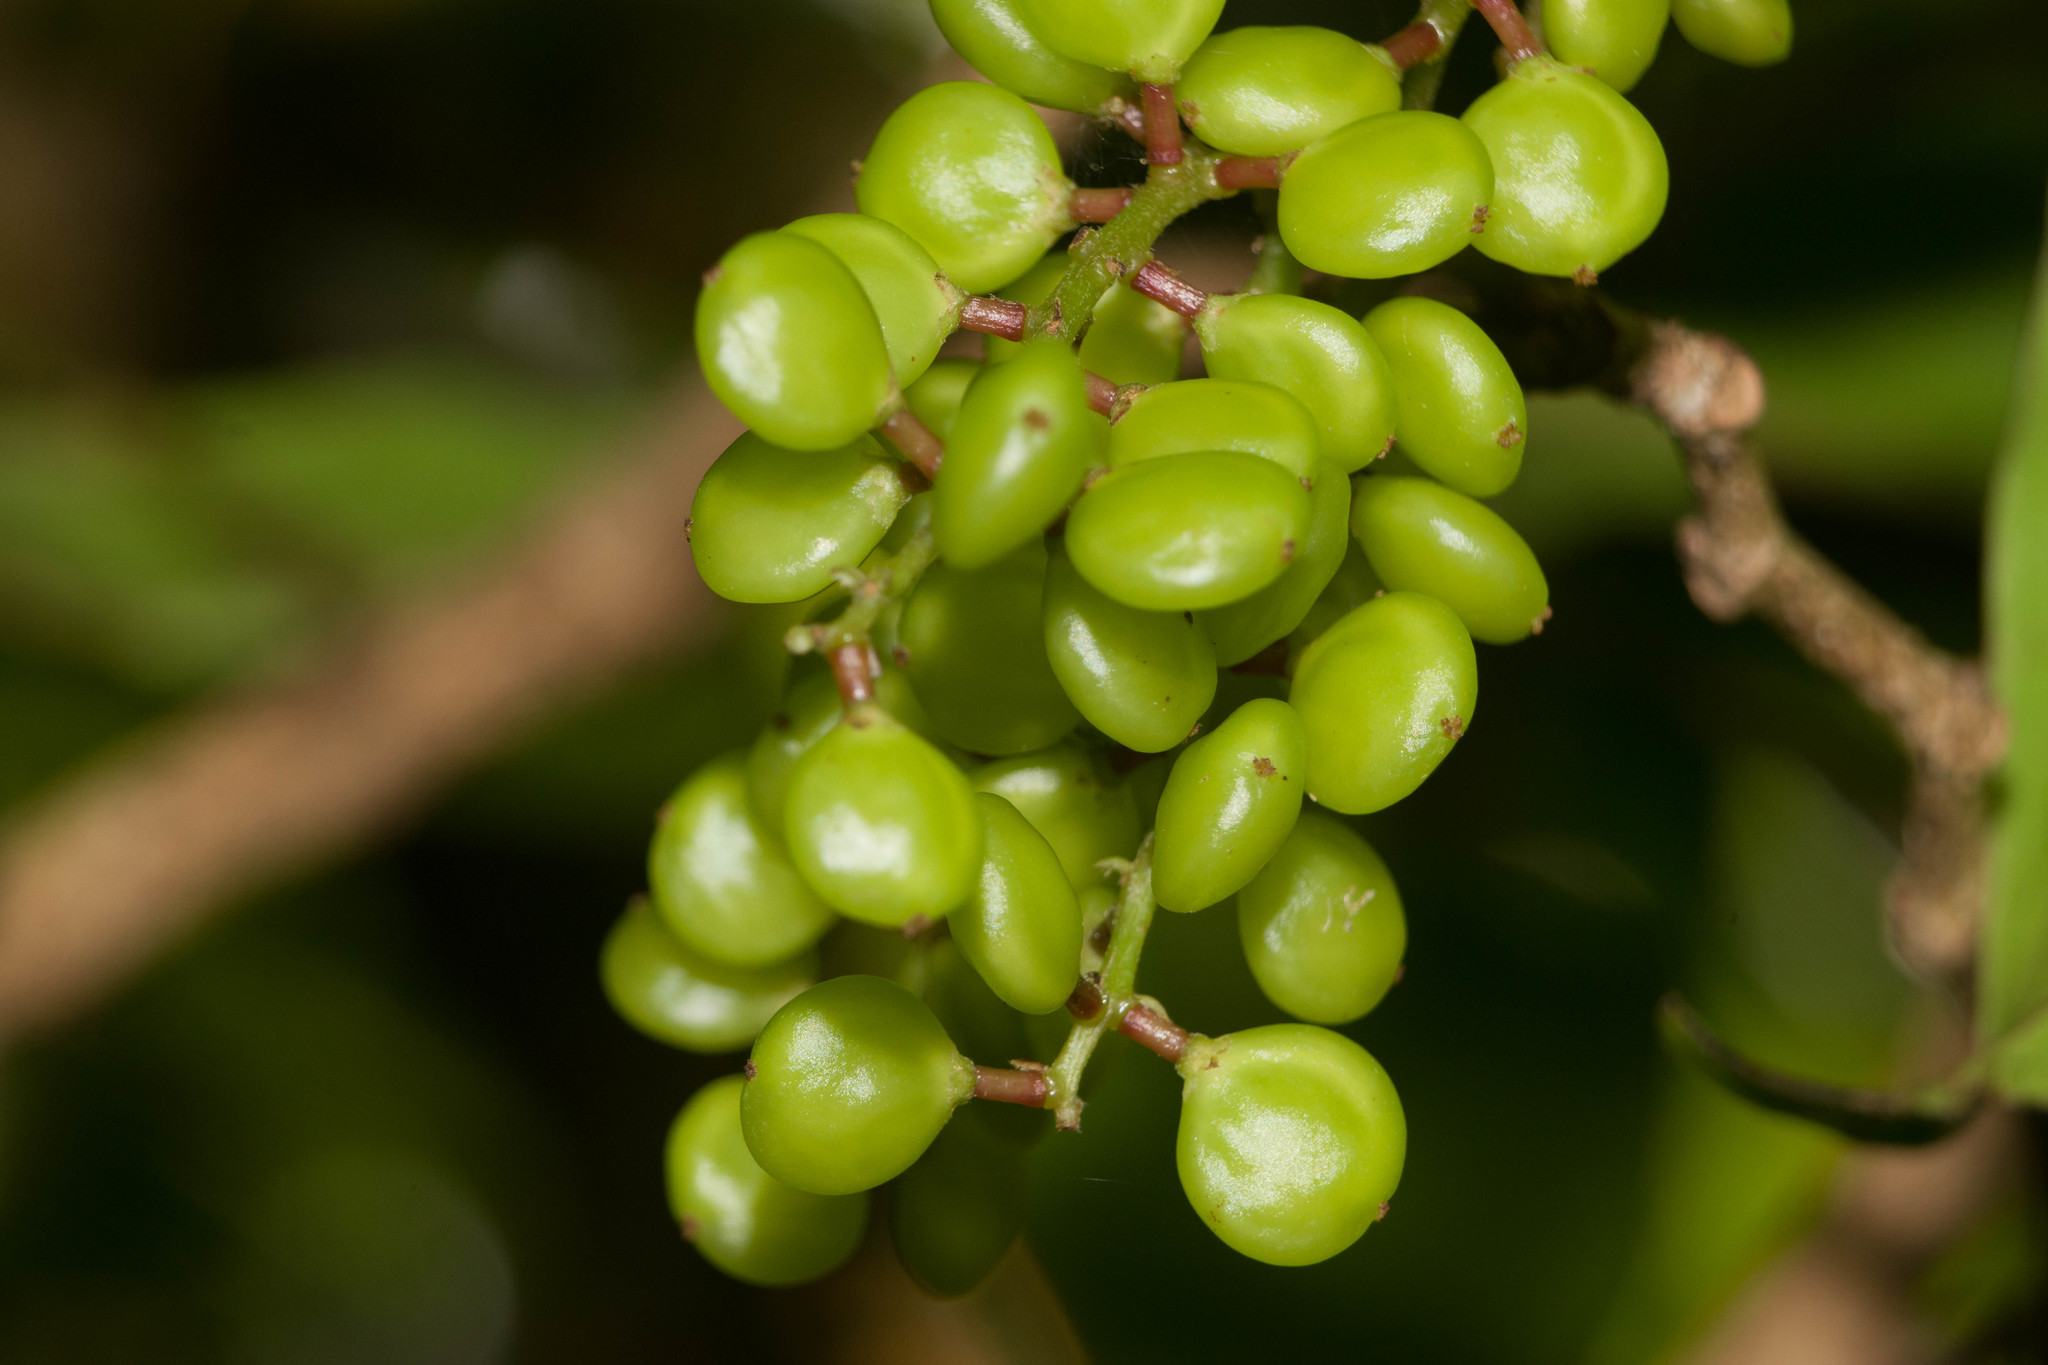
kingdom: Plantae
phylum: Tracheophyta
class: Magnoliopsida
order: Malpighiales
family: Phyllanthaceae
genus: Antidesma
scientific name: Antidesma platyphyllum
